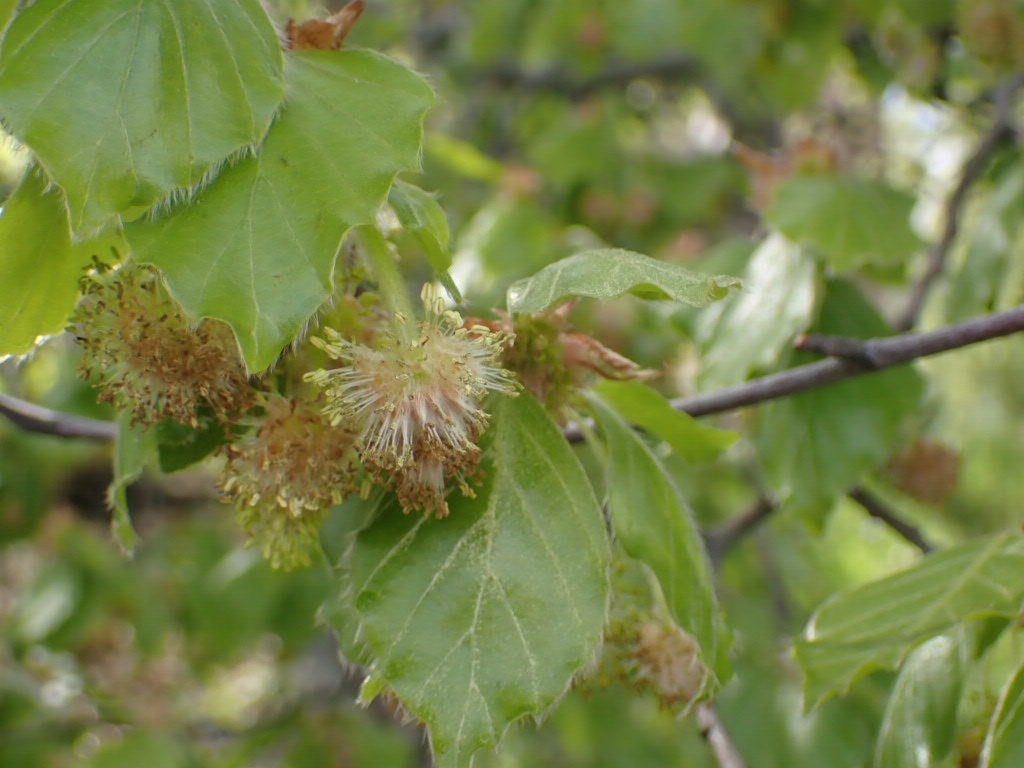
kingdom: Plantae
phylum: Tracheophyta
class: Magnoliopsida
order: Fagales
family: Fagaceae
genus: Fagus
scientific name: Fagus sylvatica
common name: Beech
